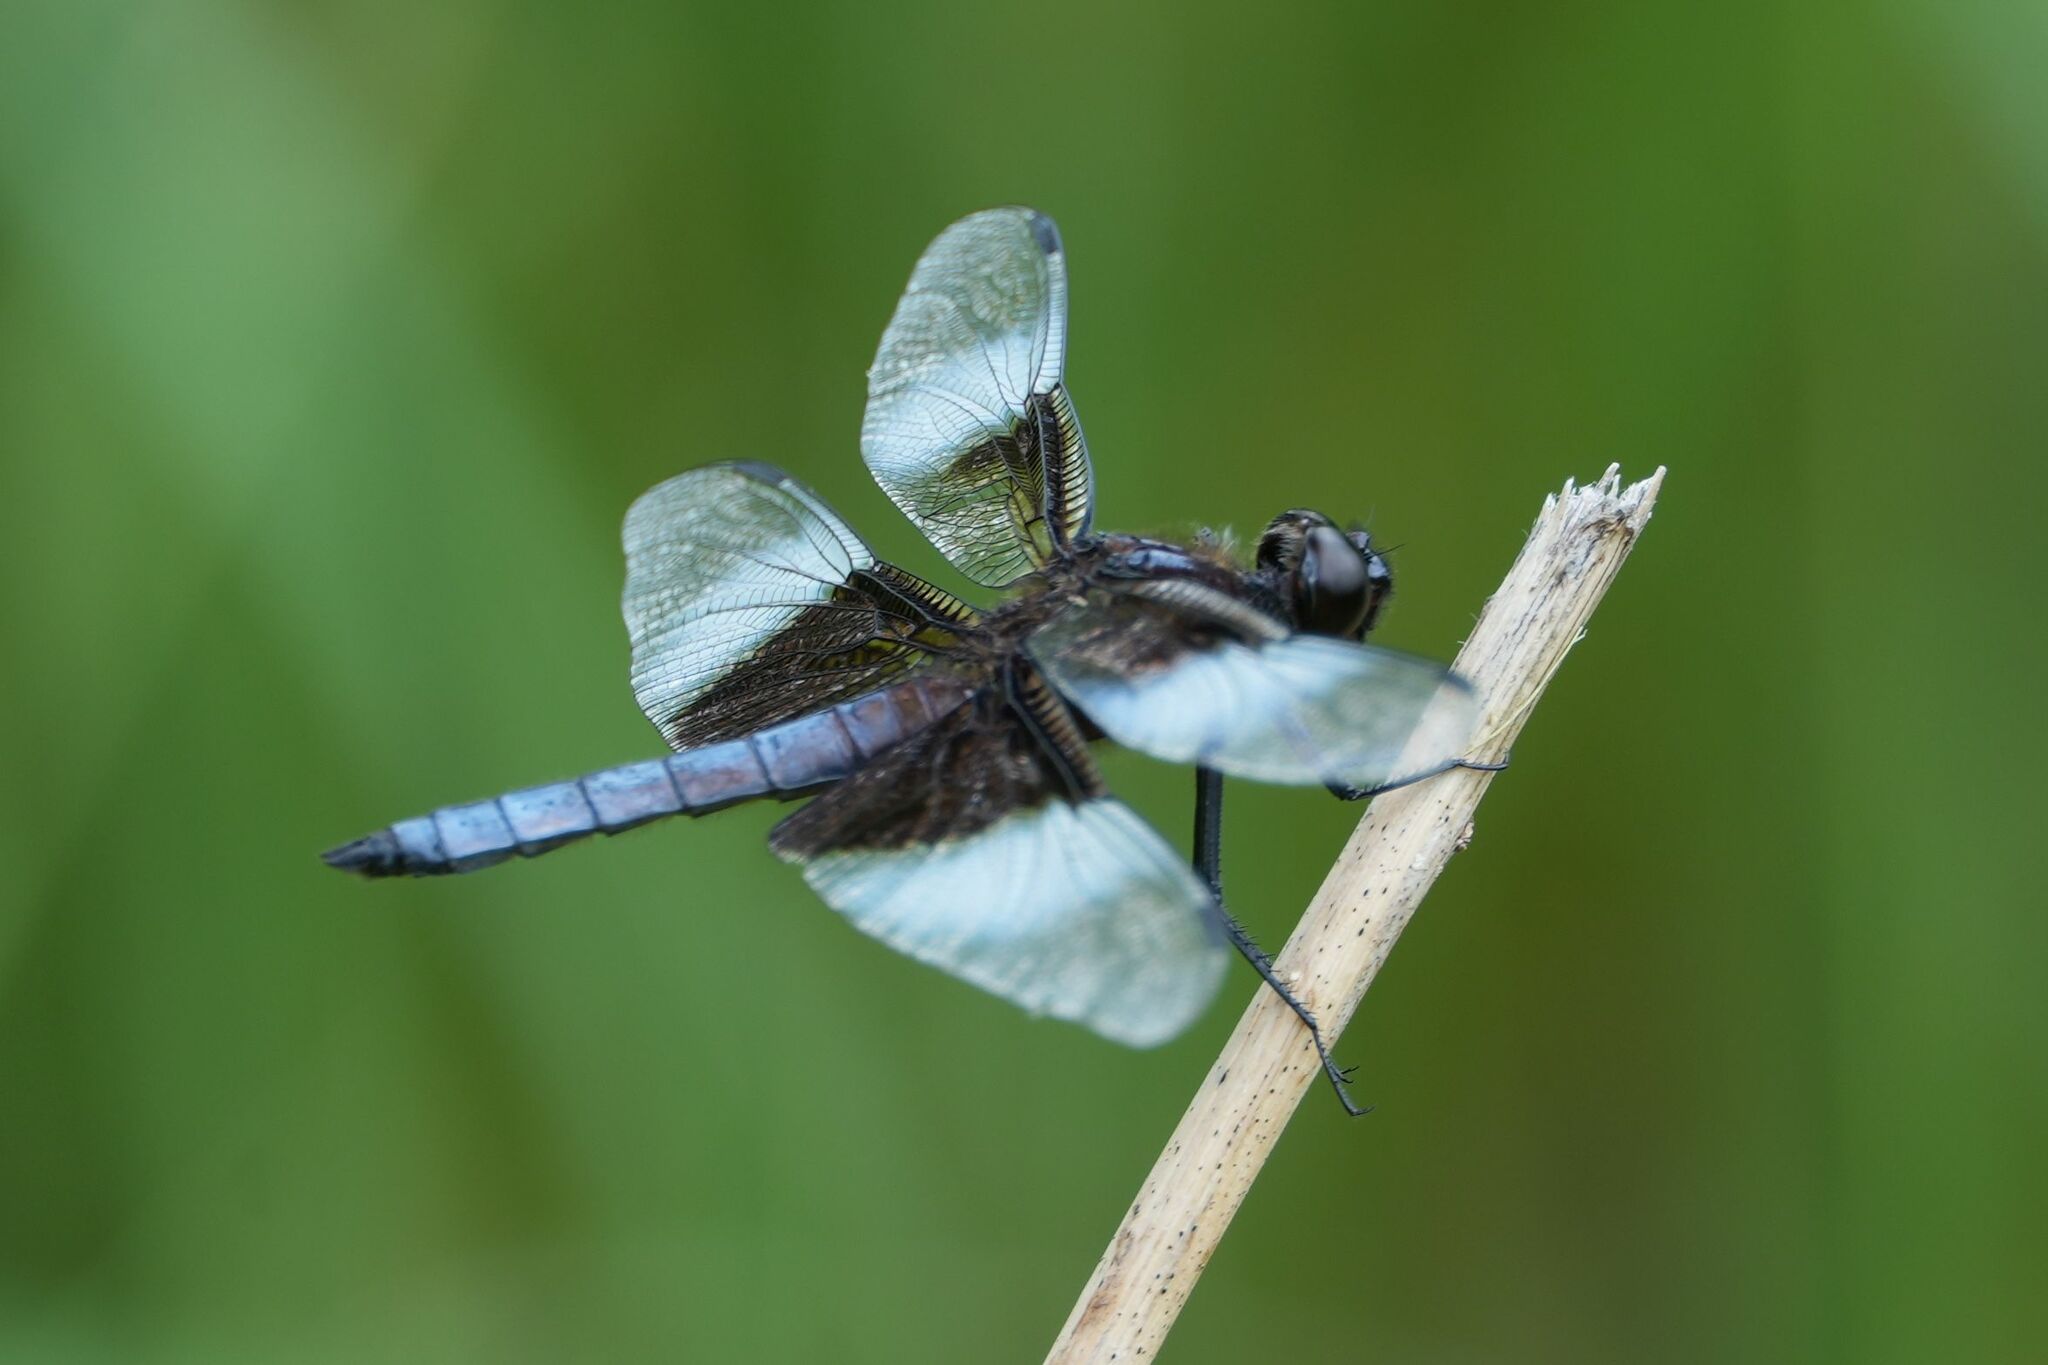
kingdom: Animalia
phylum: Arthropoda
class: Insecta
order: Odonata
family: Libellulidae
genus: Libellula
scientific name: Libellula luctuosa
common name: Widow skimmer
